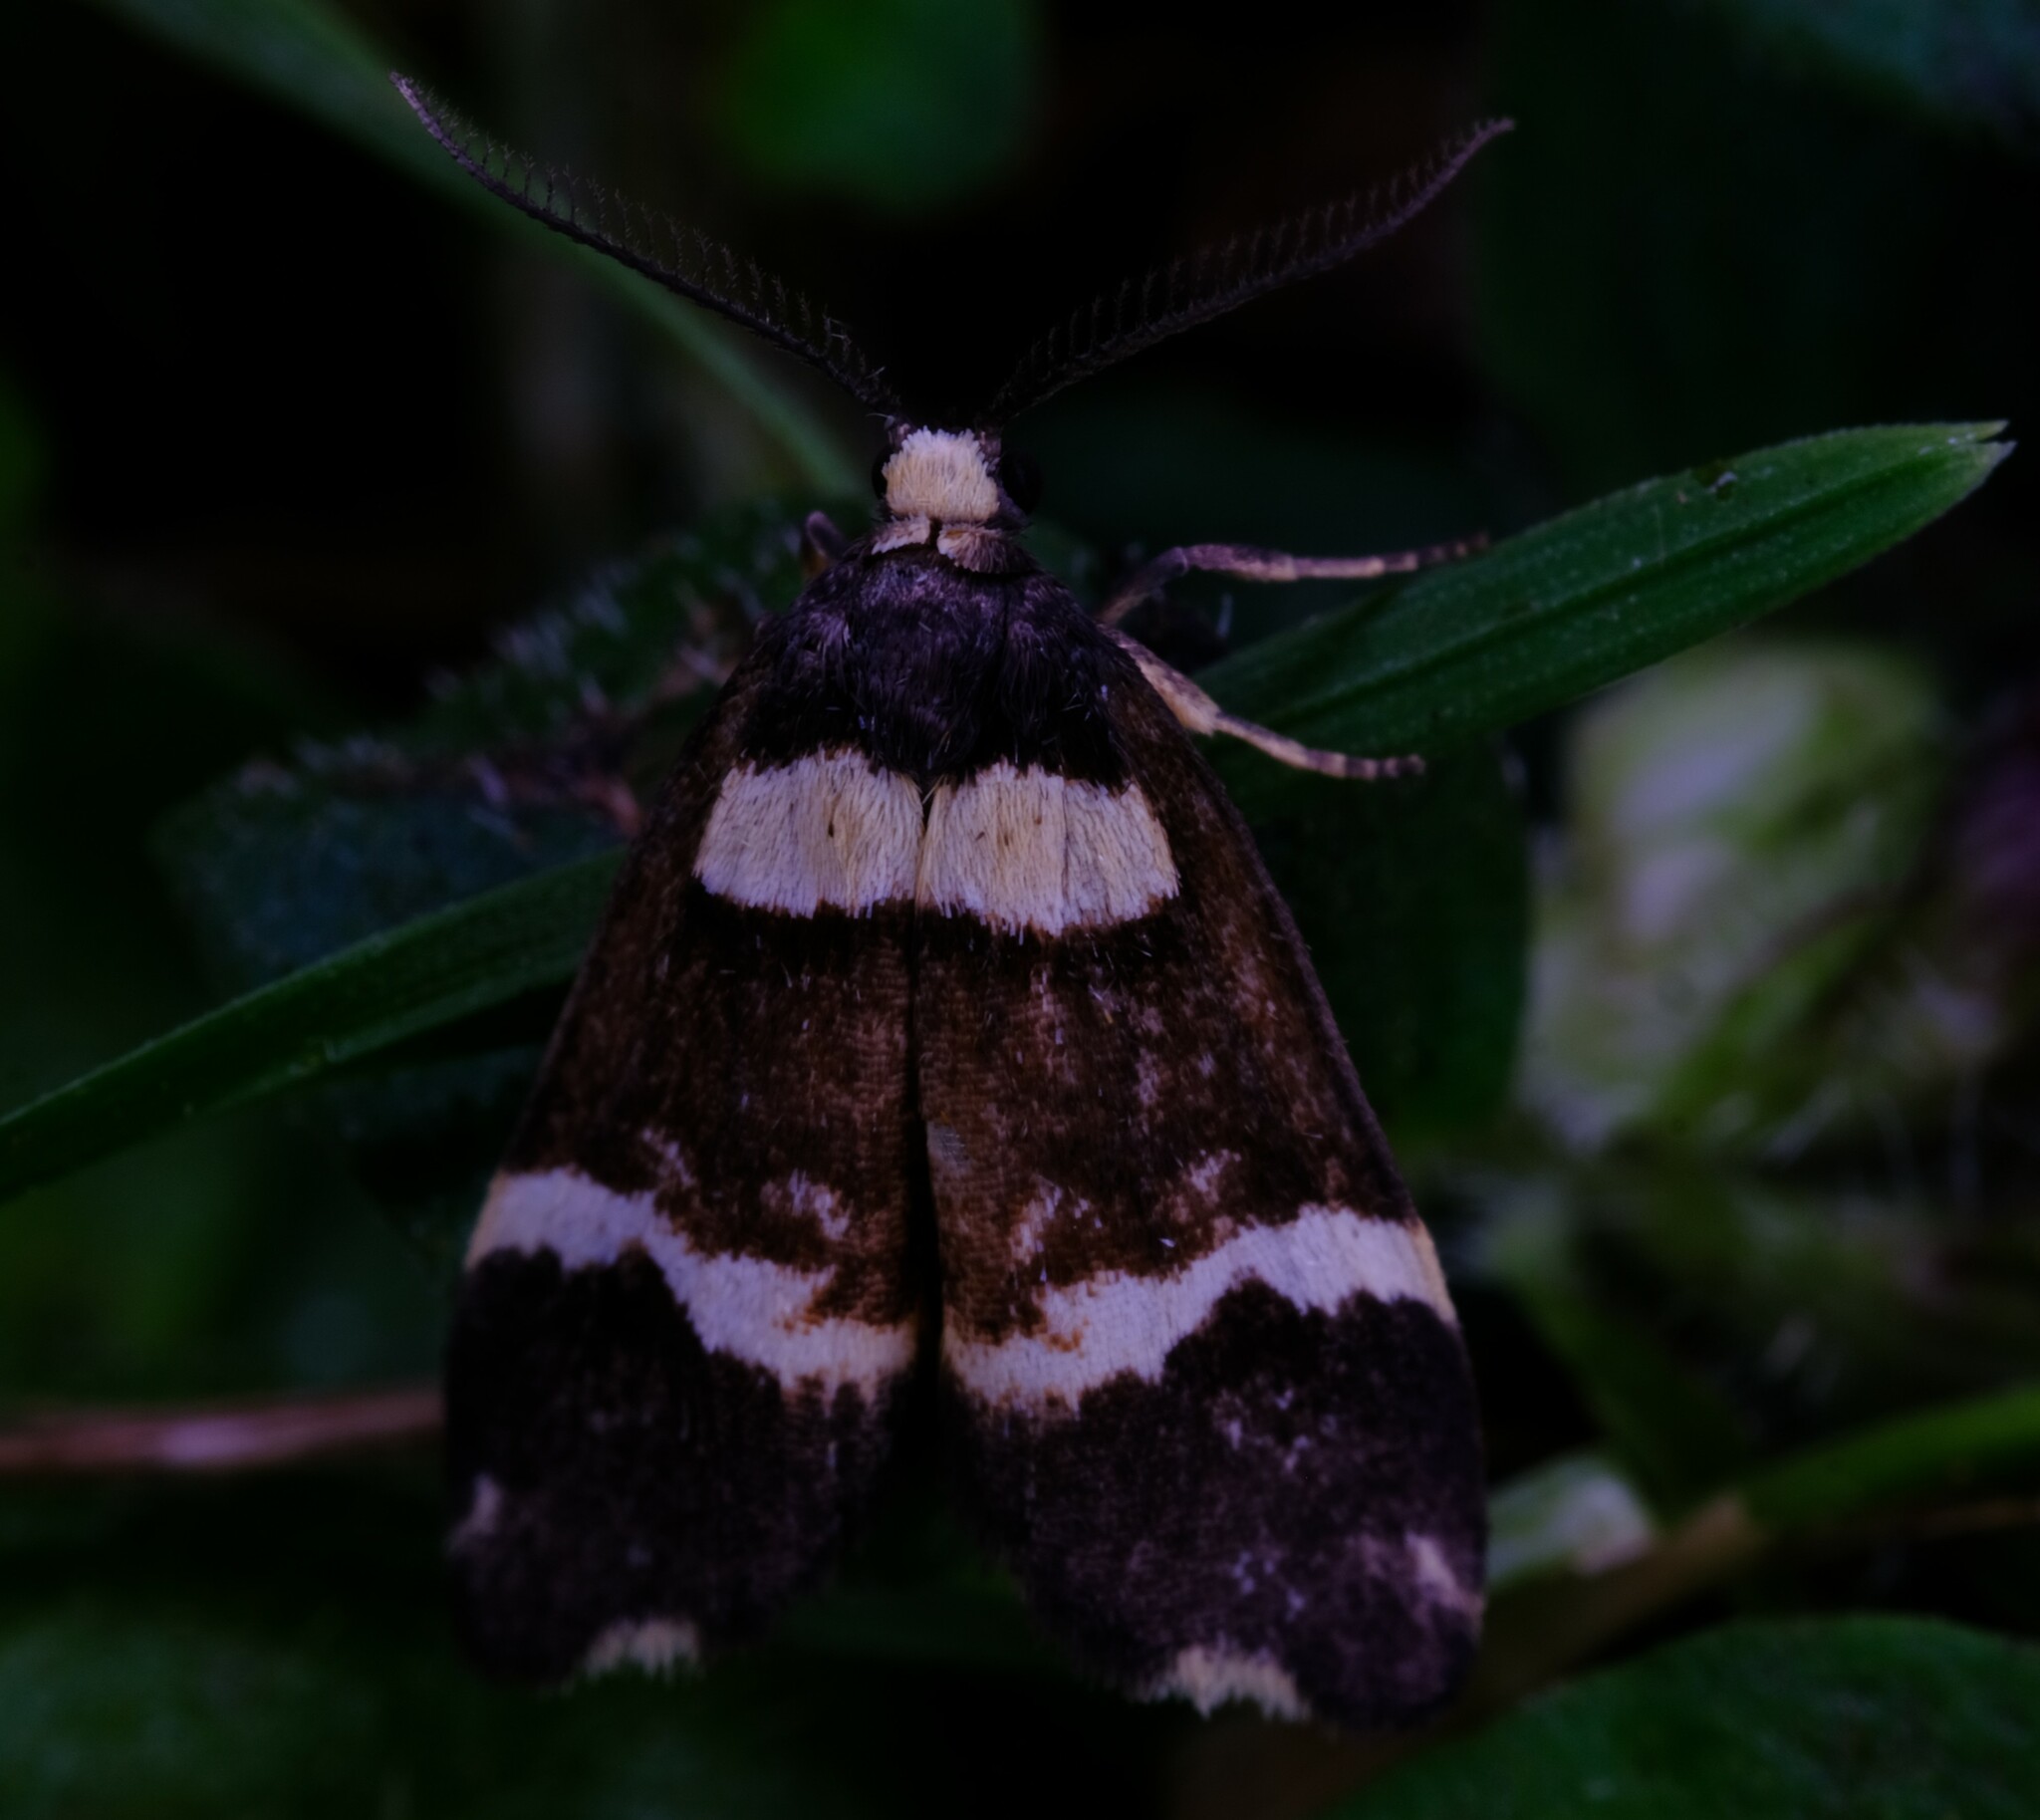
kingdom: Animalia
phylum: Arthropoda
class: Insecta
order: Lepidoptera
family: Erebidae
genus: Thallarcha
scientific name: Thallarcha phalarota
